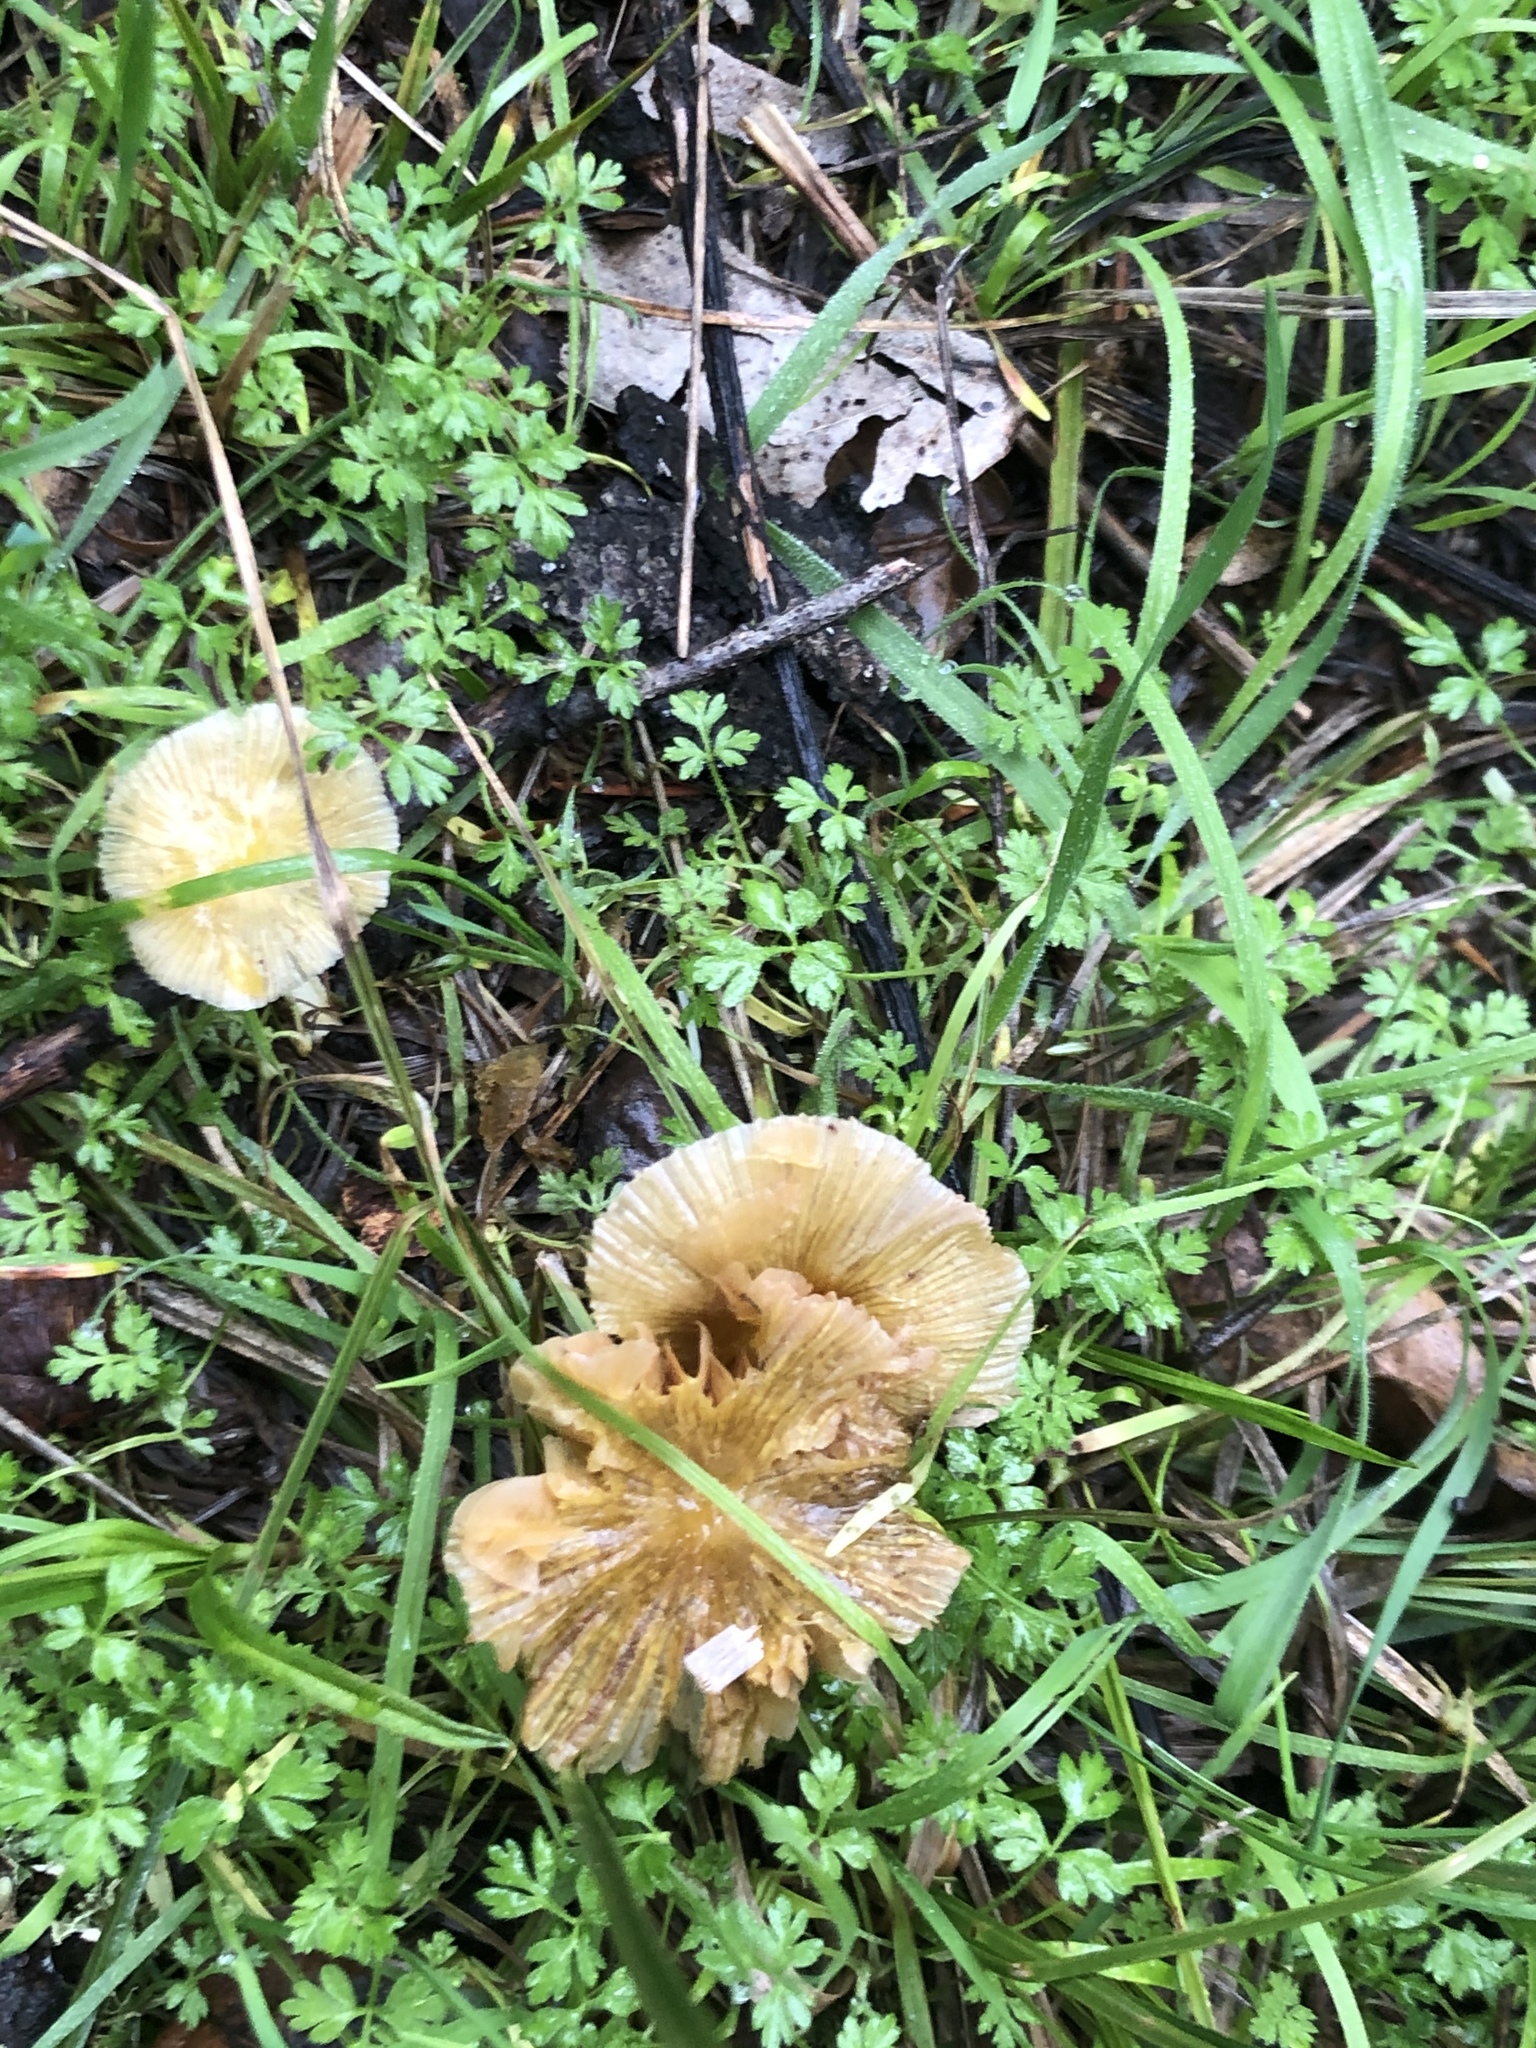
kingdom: Fungi
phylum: Basidiomycota
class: Agaricomycetes
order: Agaricales
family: Bolbitiaceae
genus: Bolbitius
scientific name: Bolbitius titubans
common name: Yellow fieldcap
